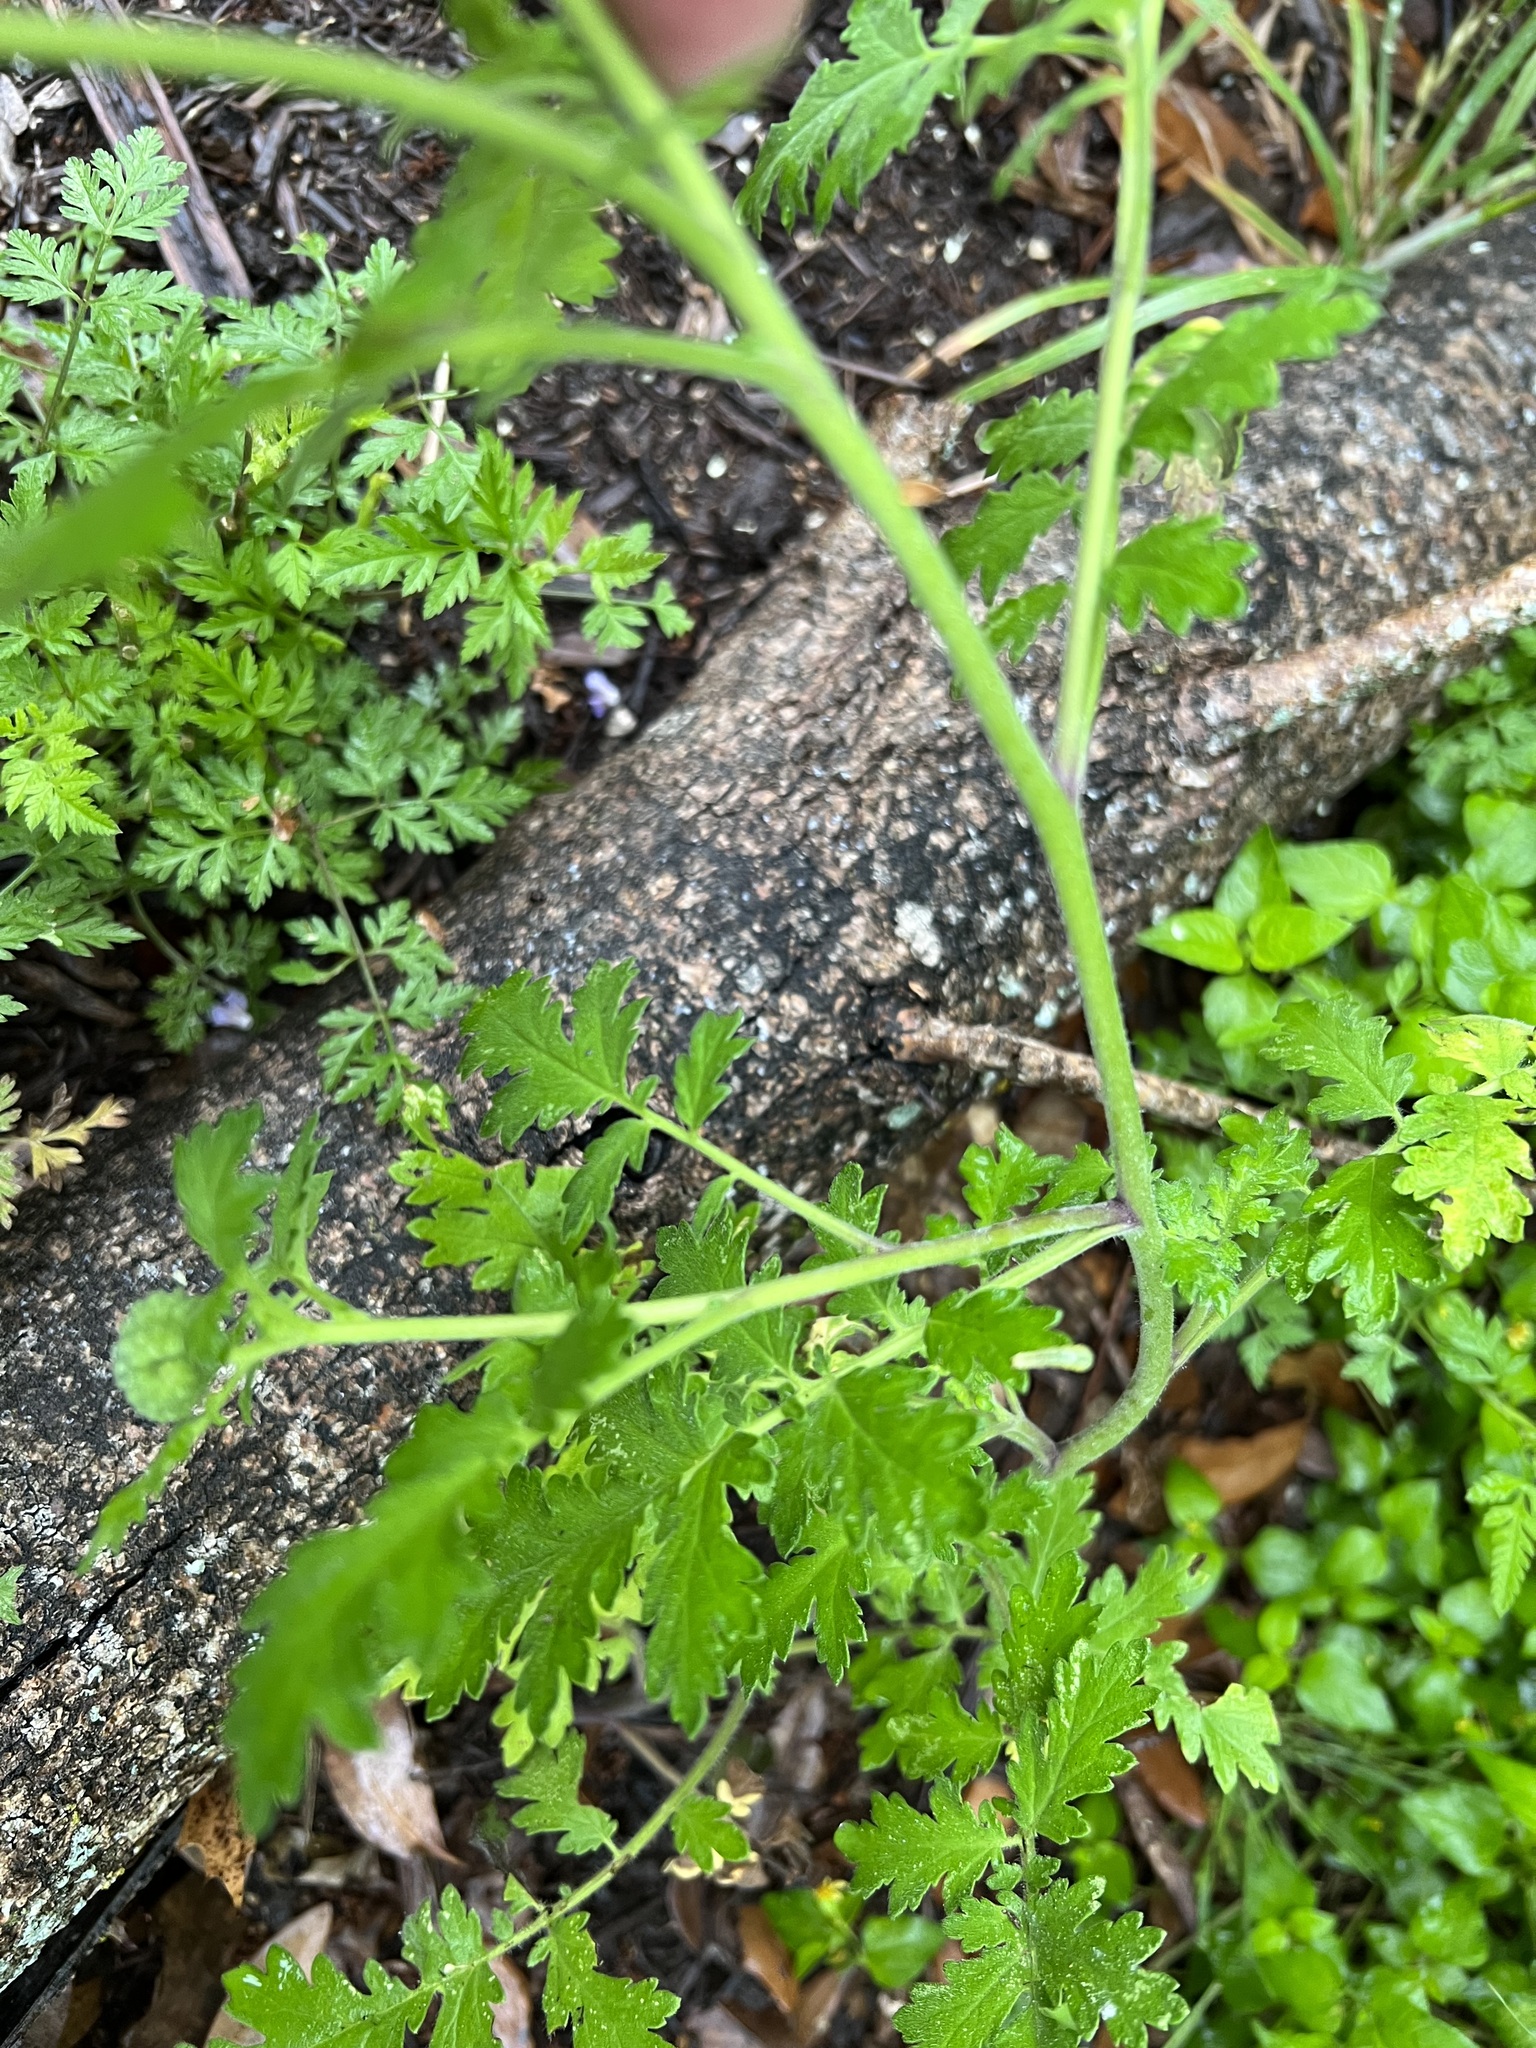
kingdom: Plantae
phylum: Tracheophyta
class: Magnoliopsida
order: Boraginales
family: Hydrophyllaceae
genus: Phacelia
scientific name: Phacelia congesta
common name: Blue curls
